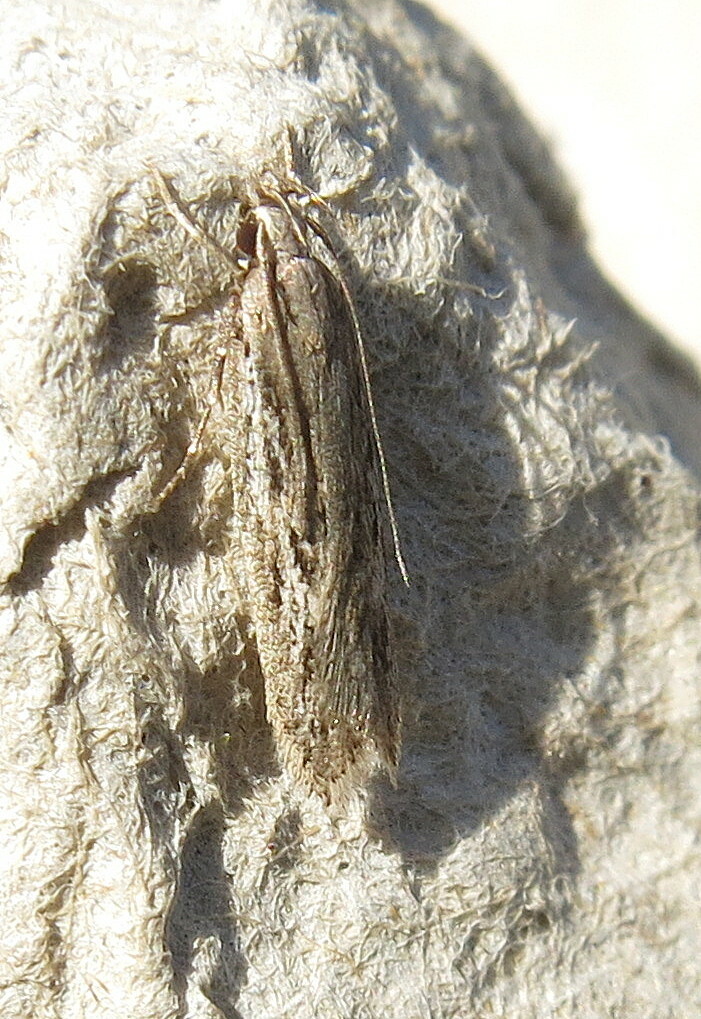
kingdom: Animalia
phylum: Arthropoda
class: Insecta
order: Lepidoptera
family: Gelechiidae
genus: Gelechia
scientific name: Gelechia senticetella
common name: Cypress groundling
